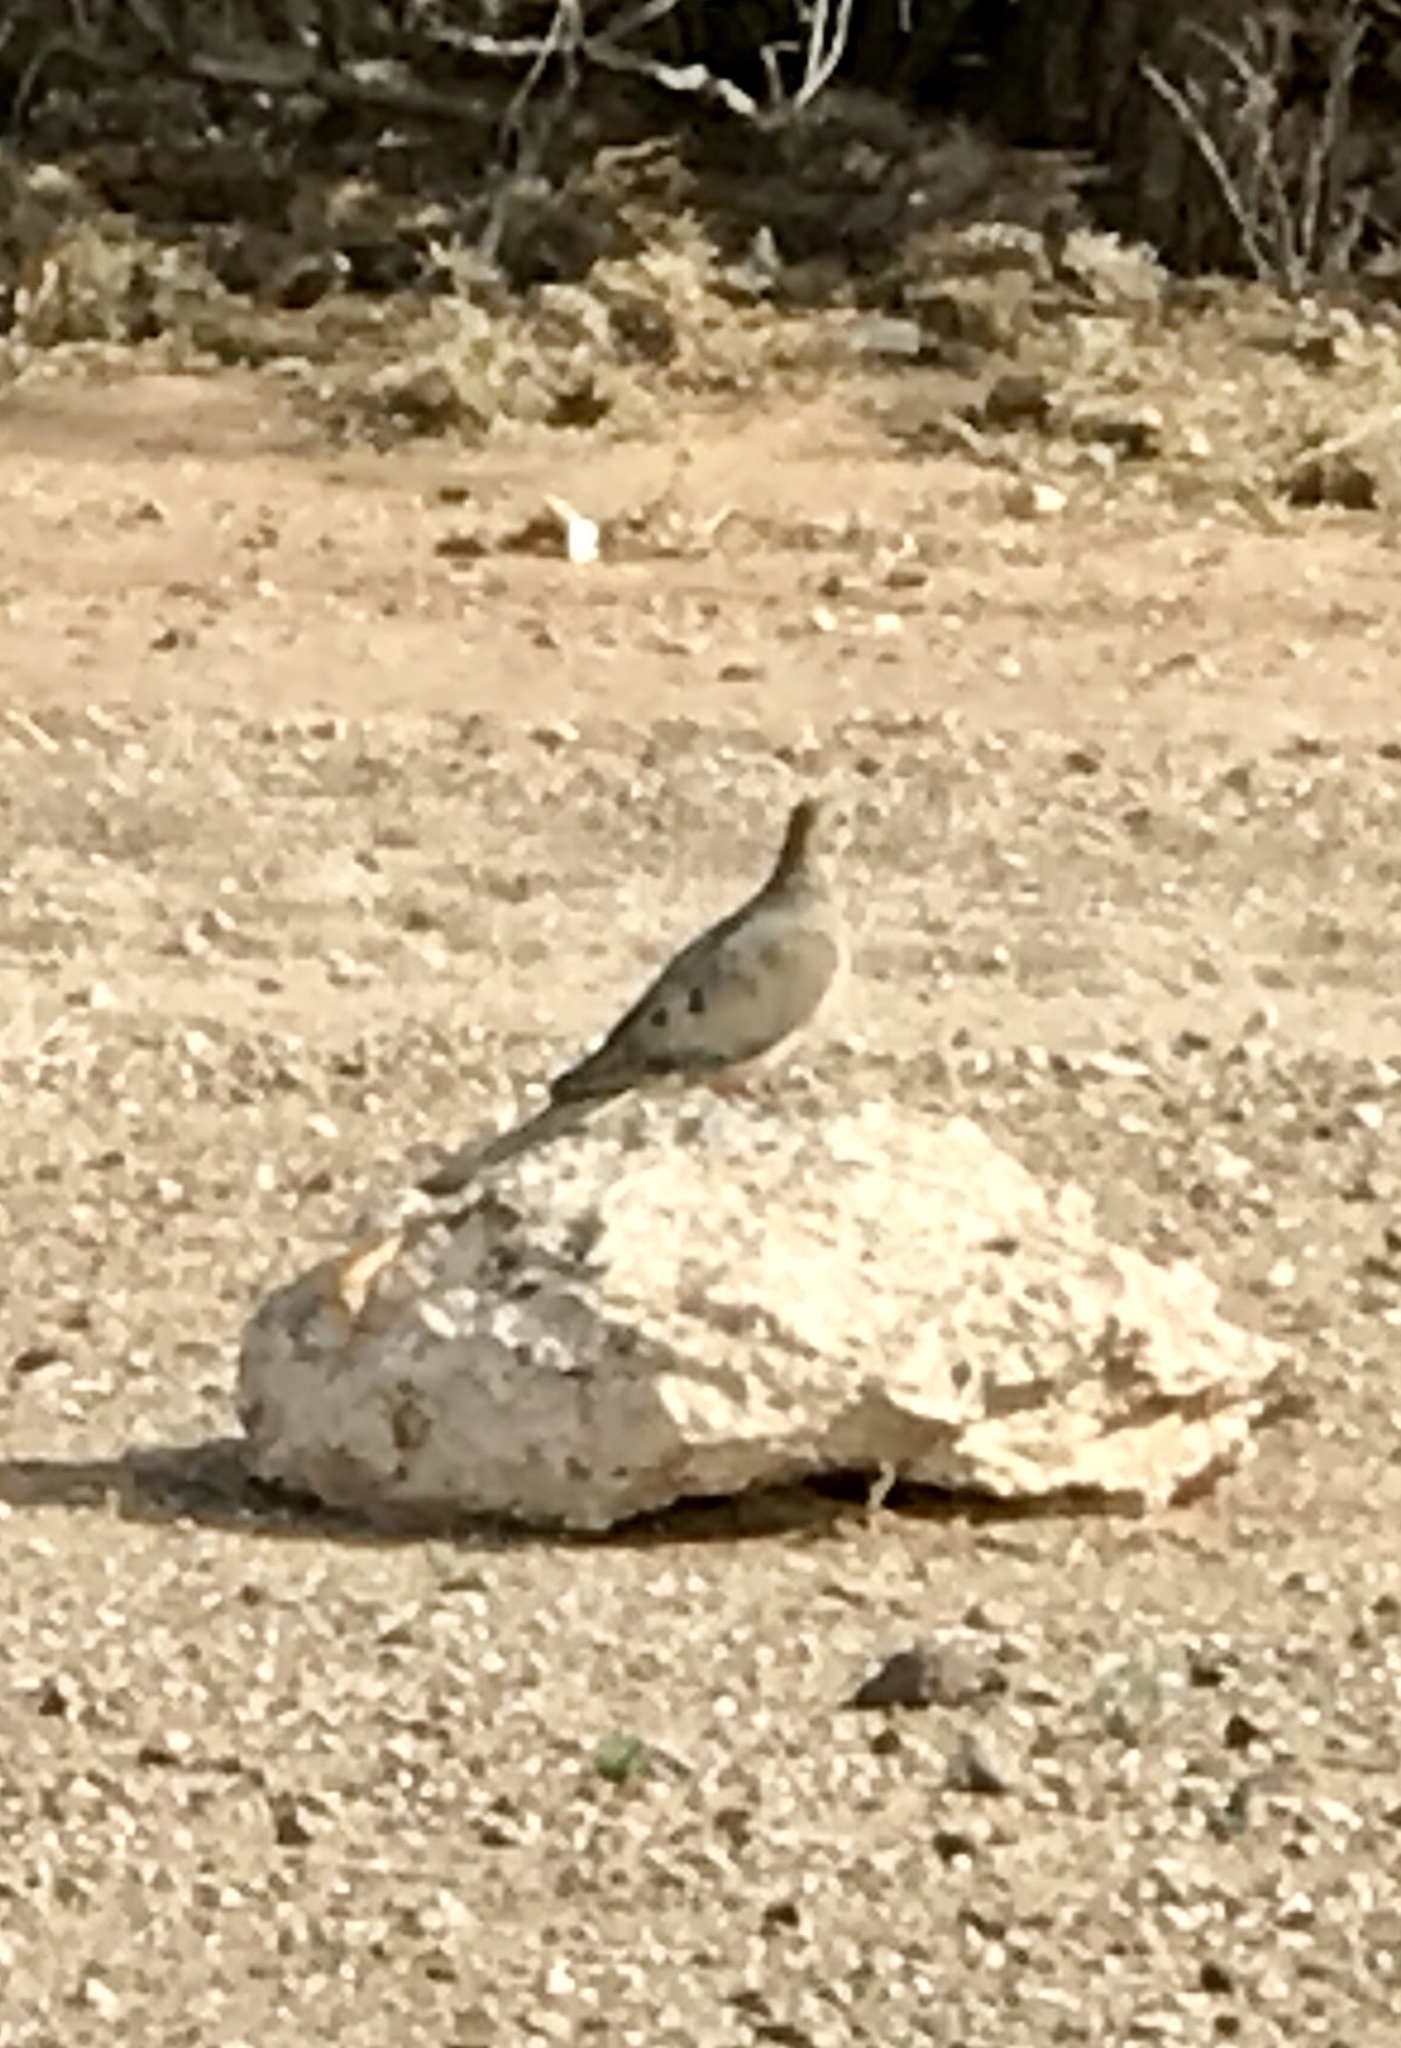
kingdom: Animalia
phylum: Chordata
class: Aves
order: Columbiformes
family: Columbidae
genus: Zenaida
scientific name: Zenaida macroura
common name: Mourning dove
